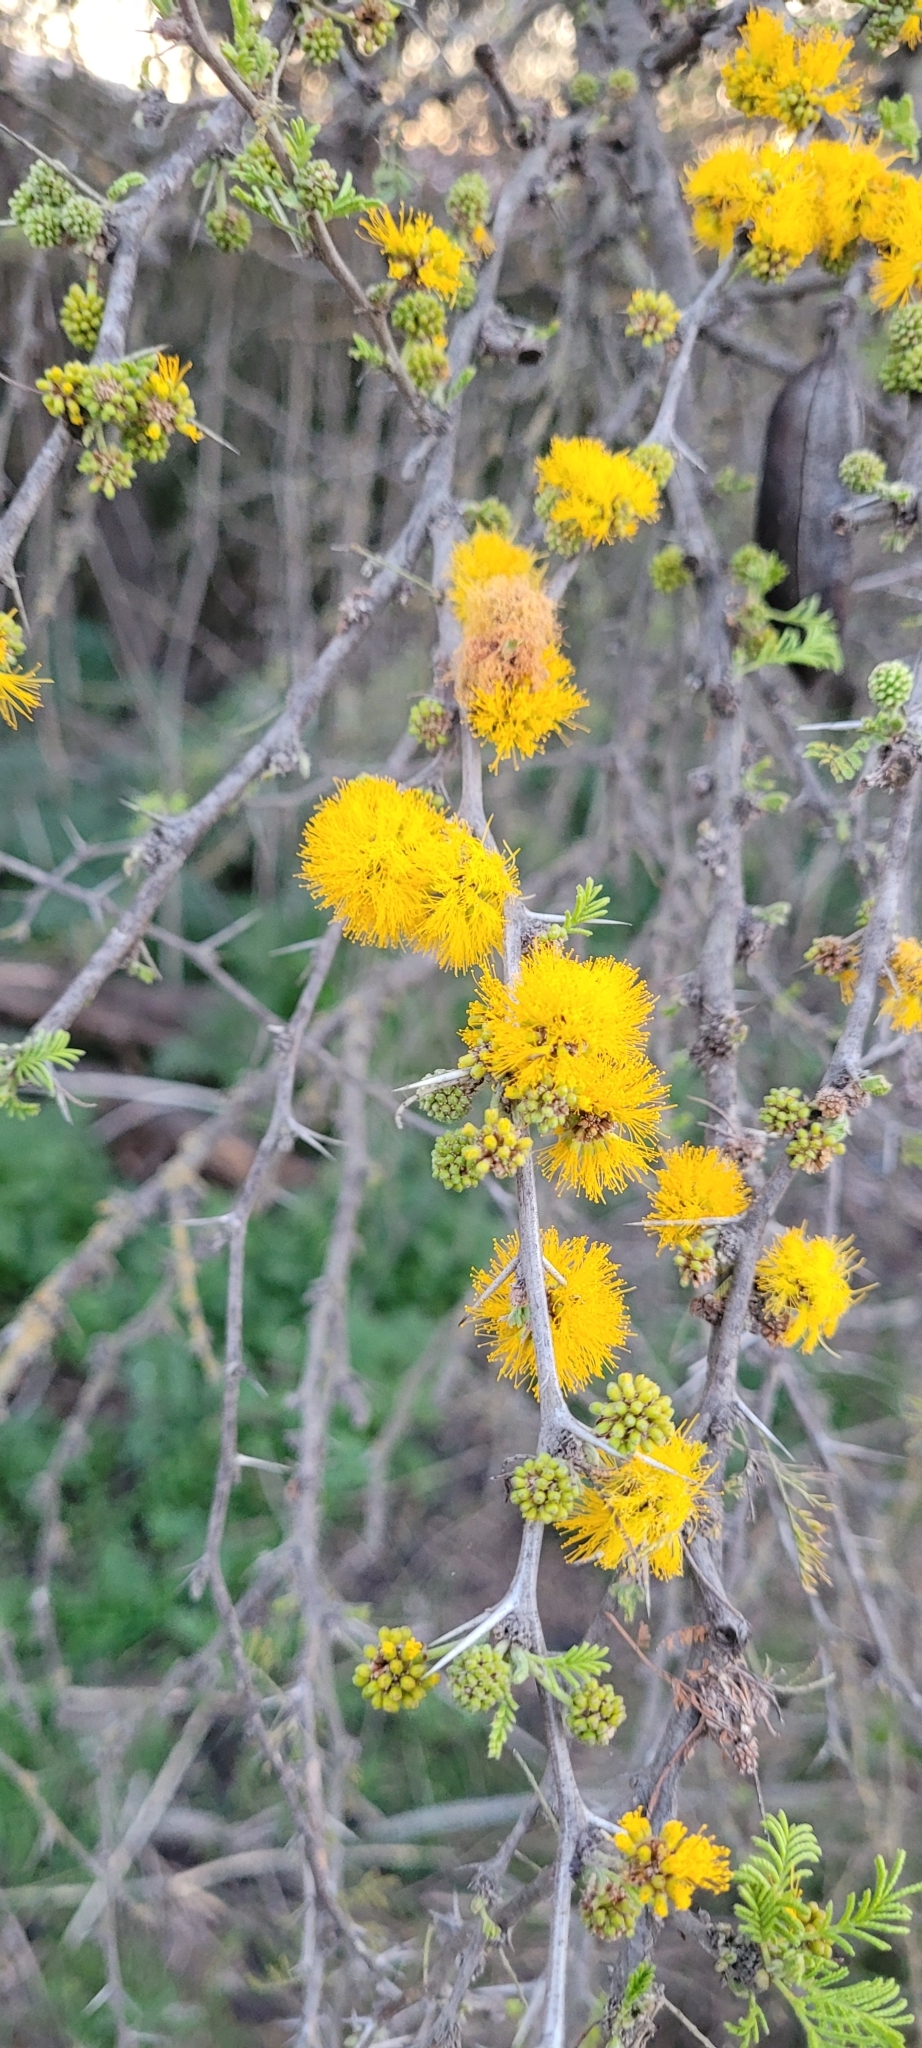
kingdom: Plantae
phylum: Tracheophyta
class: Magnoliopsida
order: Fabales
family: Fabaceae
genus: Vachellia
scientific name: Vachellia caven
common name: Roman cassie
